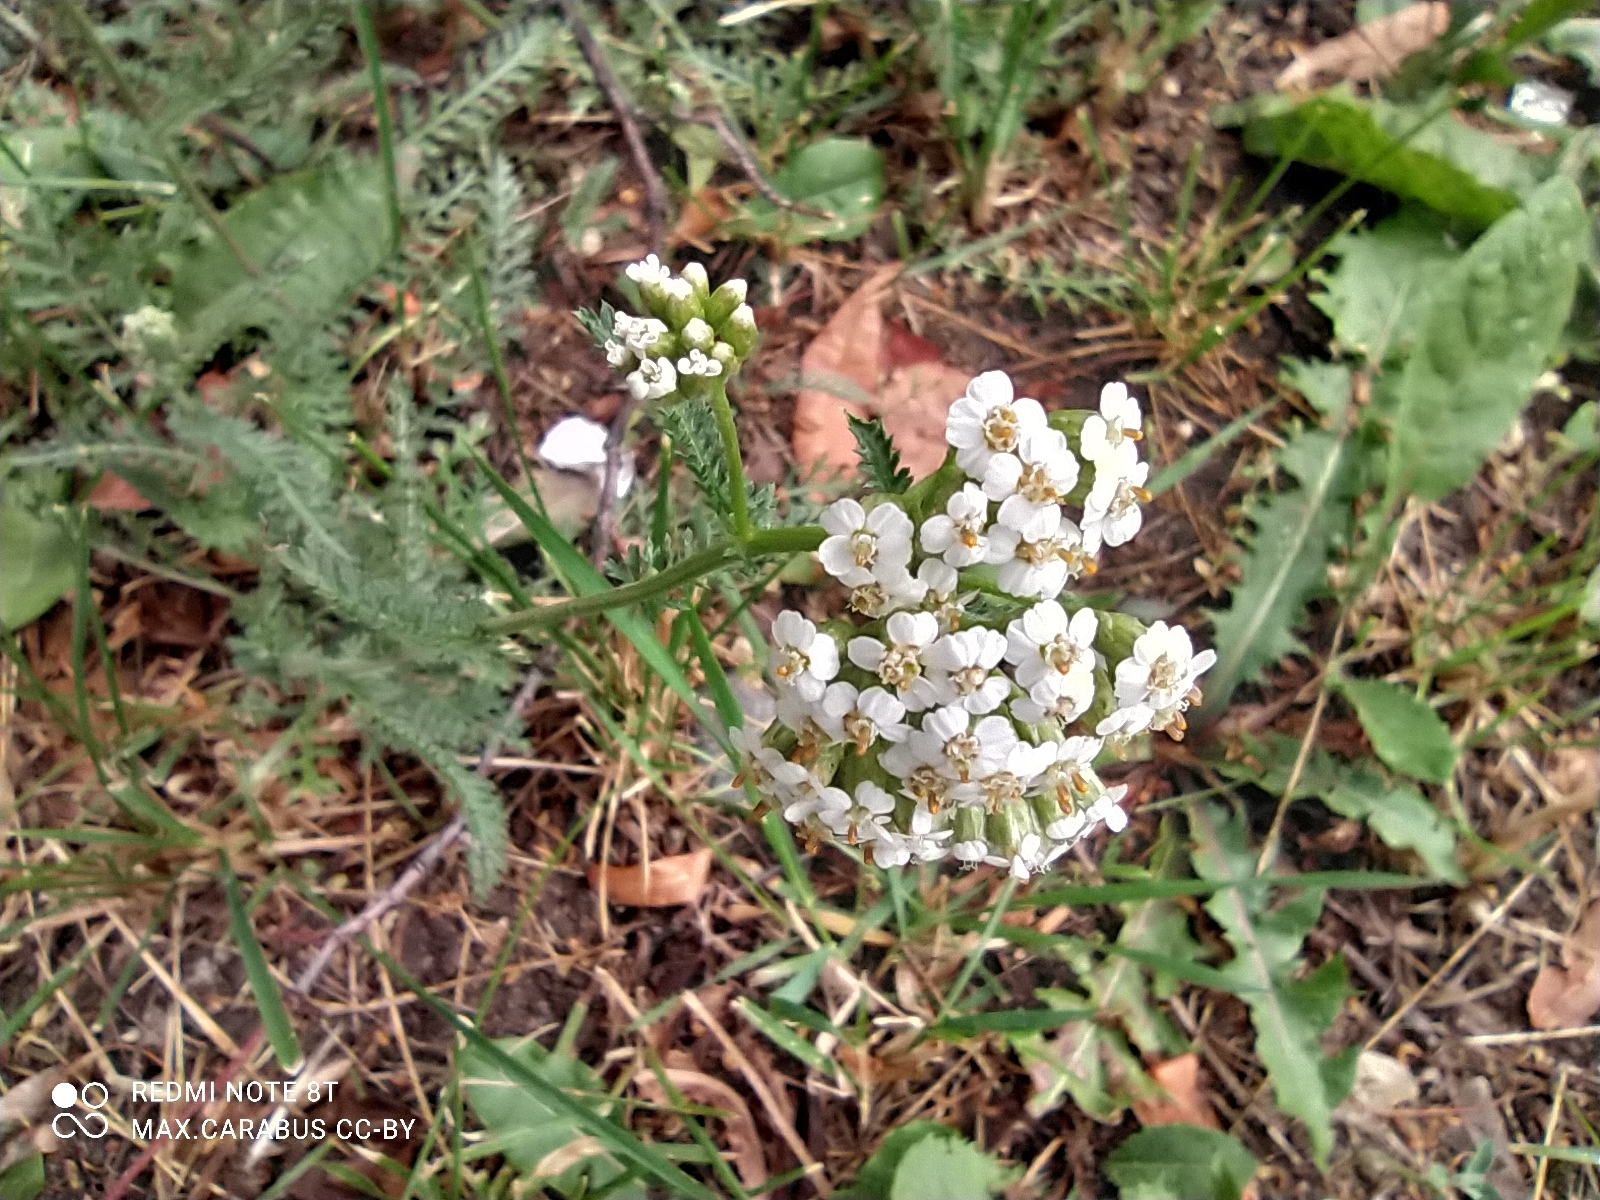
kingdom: Plantae
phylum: Tracheophyta
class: Magnoliopsida
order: Asterales
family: Asteraceae
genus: Achillea
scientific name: Achillea millefolium
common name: Yarrow
